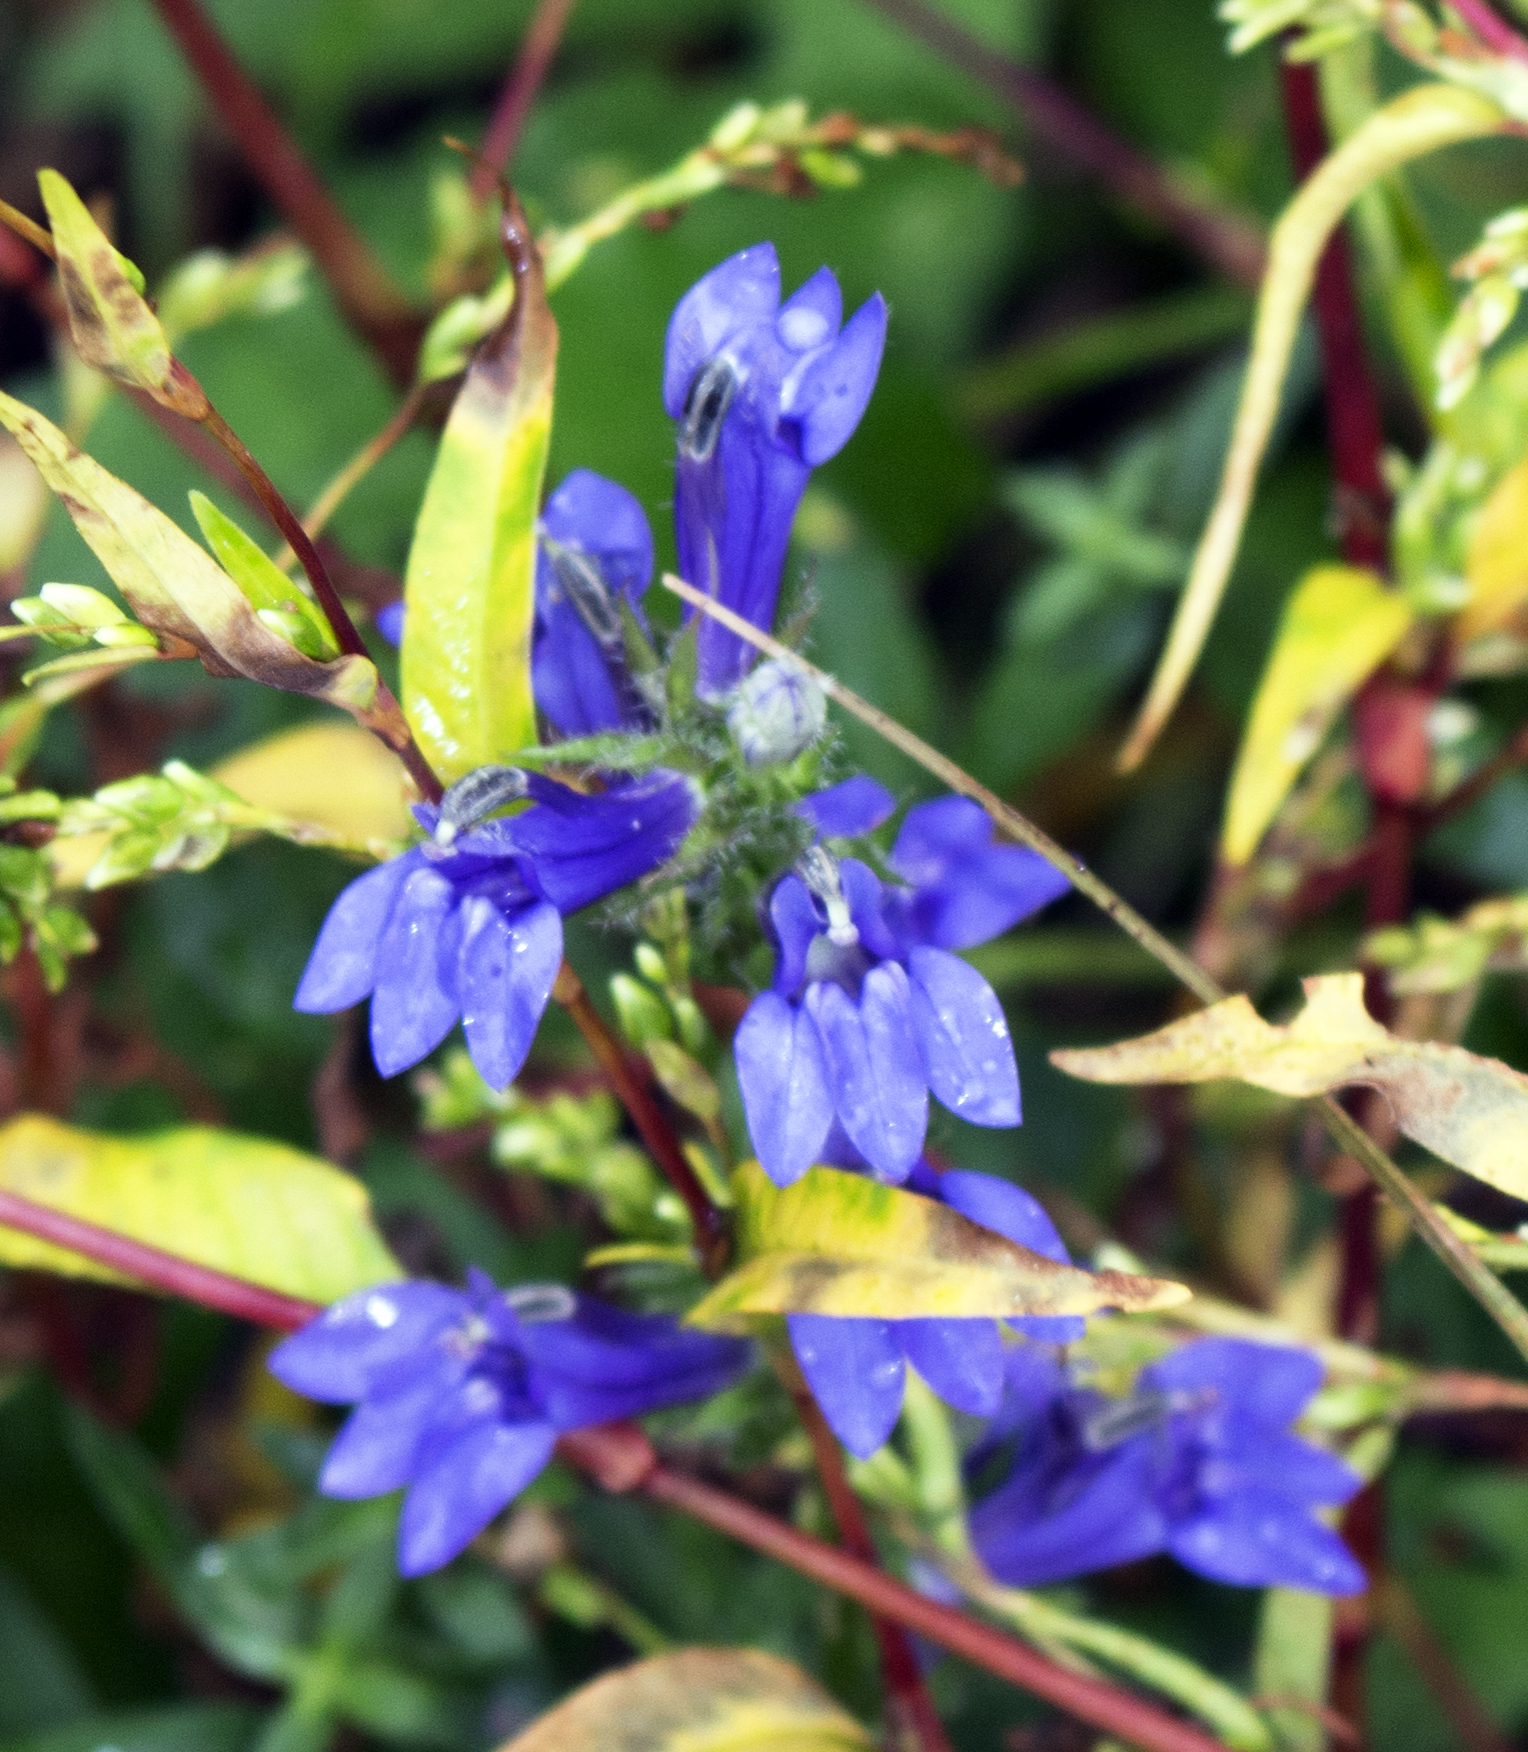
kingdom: Plantae
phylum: Tracheophyta
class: Magnoliopsida
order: Asterales
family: Campanulaceae
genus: Lobelia
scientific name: Lobelia siphilitica
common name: Great lobelia
